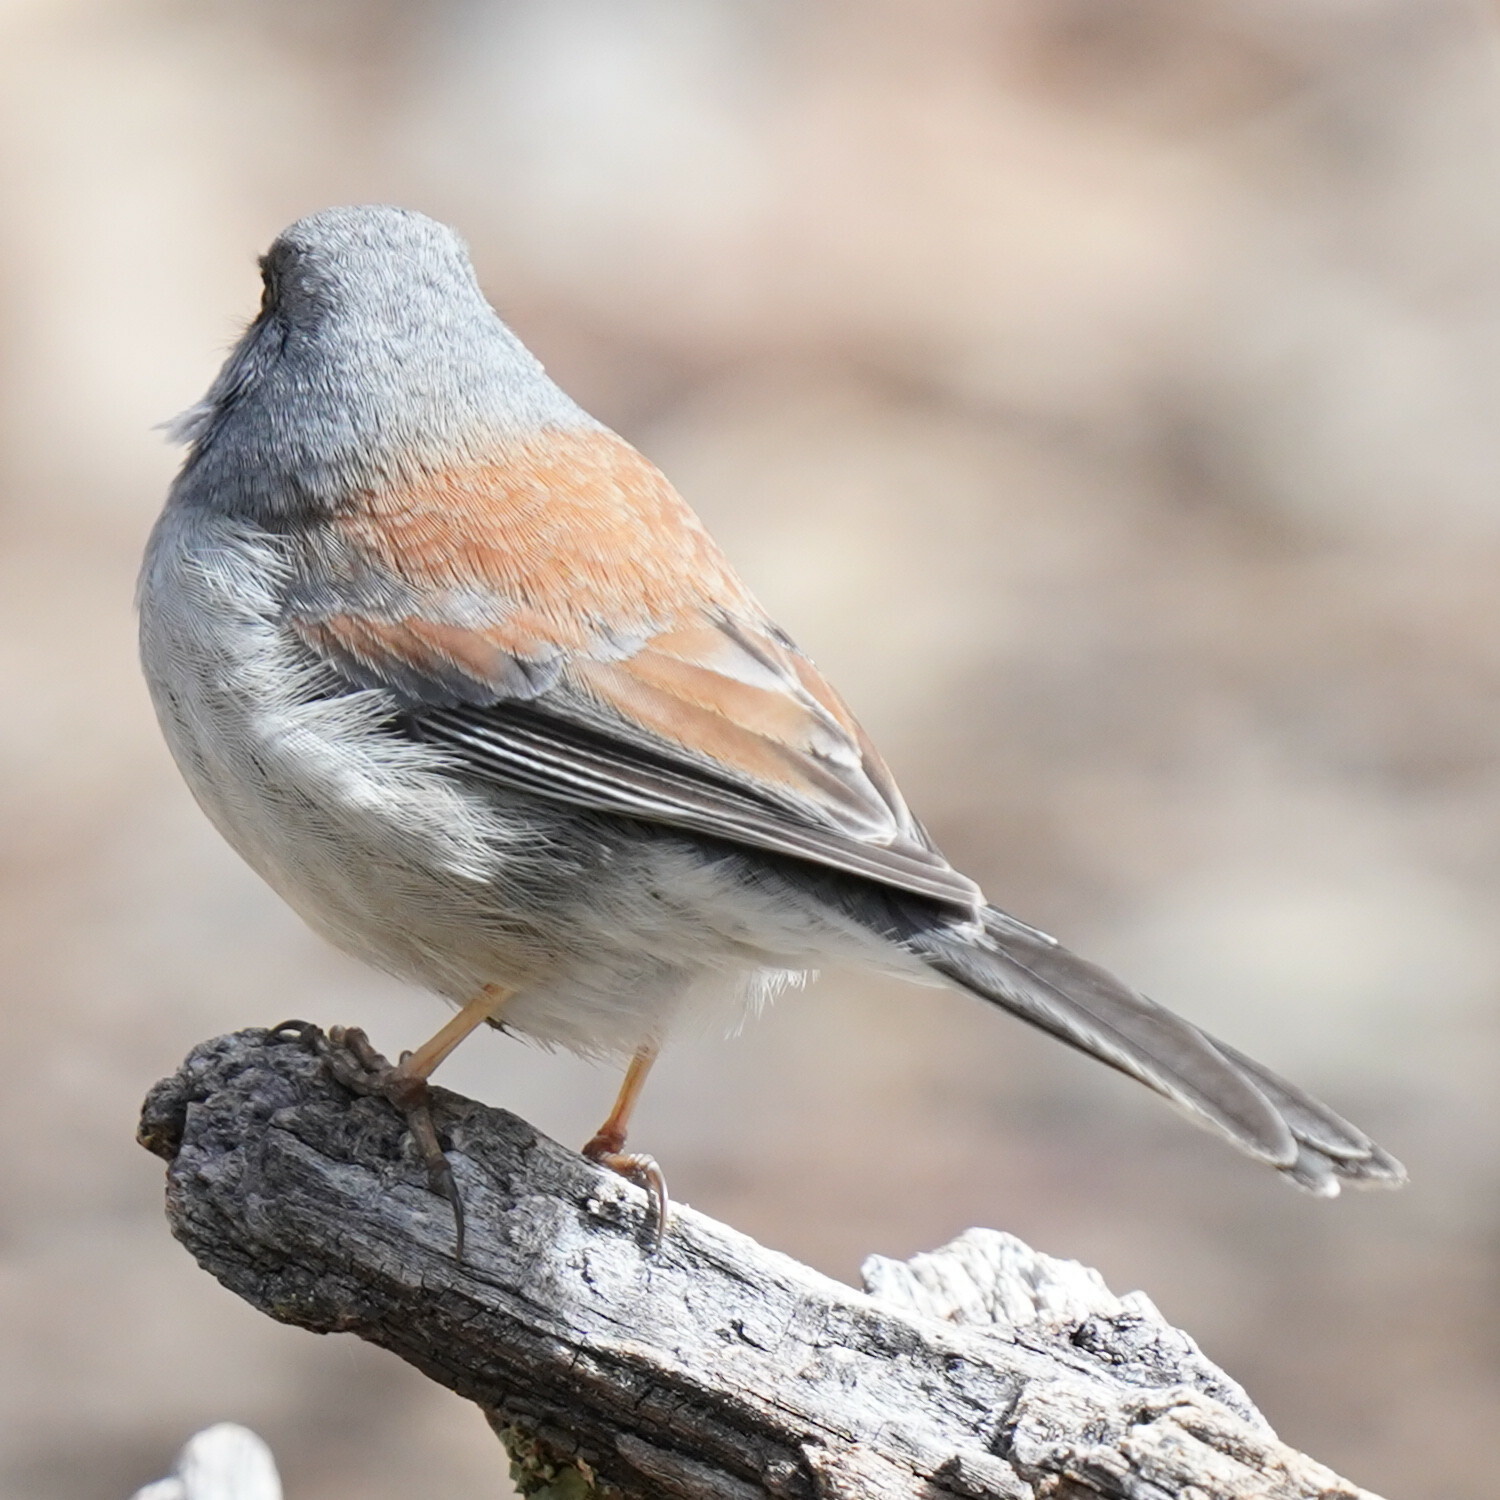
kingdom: Animalia
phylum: Chordata
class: Aves
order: Passeriformes
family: Passerellidae
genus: Junco
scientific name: Junco phaeonotus
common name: Yellow-eyed junco
